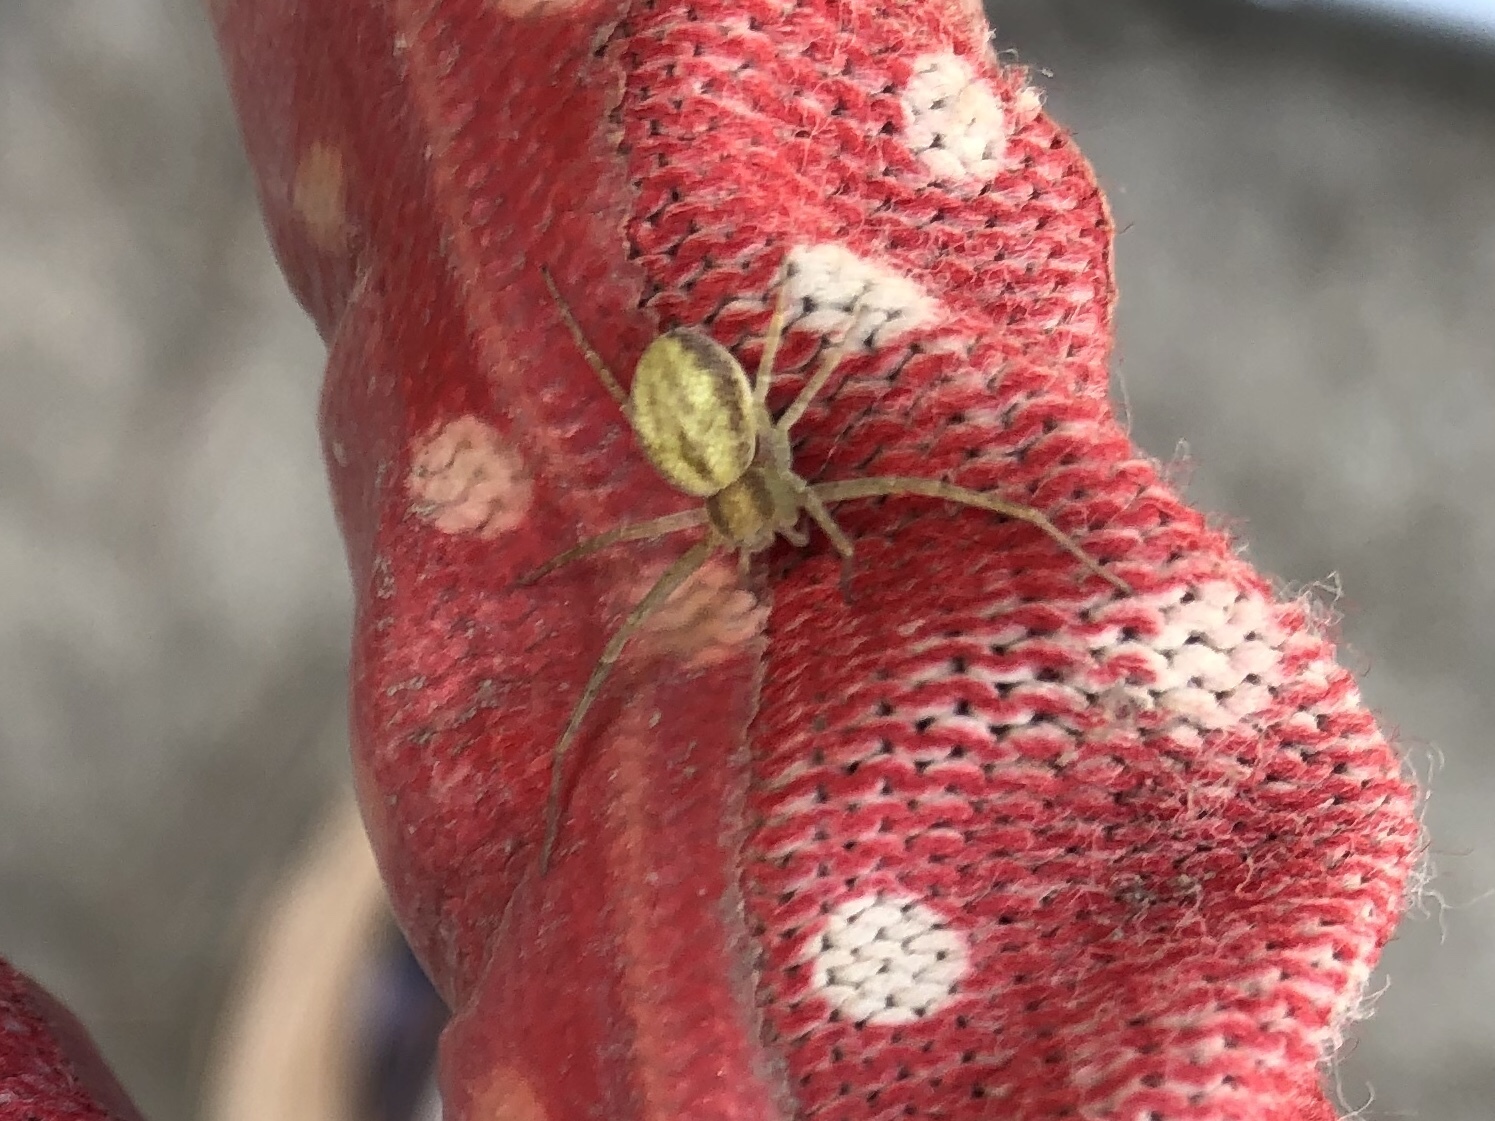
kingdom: Animalia
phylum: Arthropoda
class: Arachnida
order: Araneae
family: Philodromidae
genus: Philodromus
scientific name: Philodromus albidus
